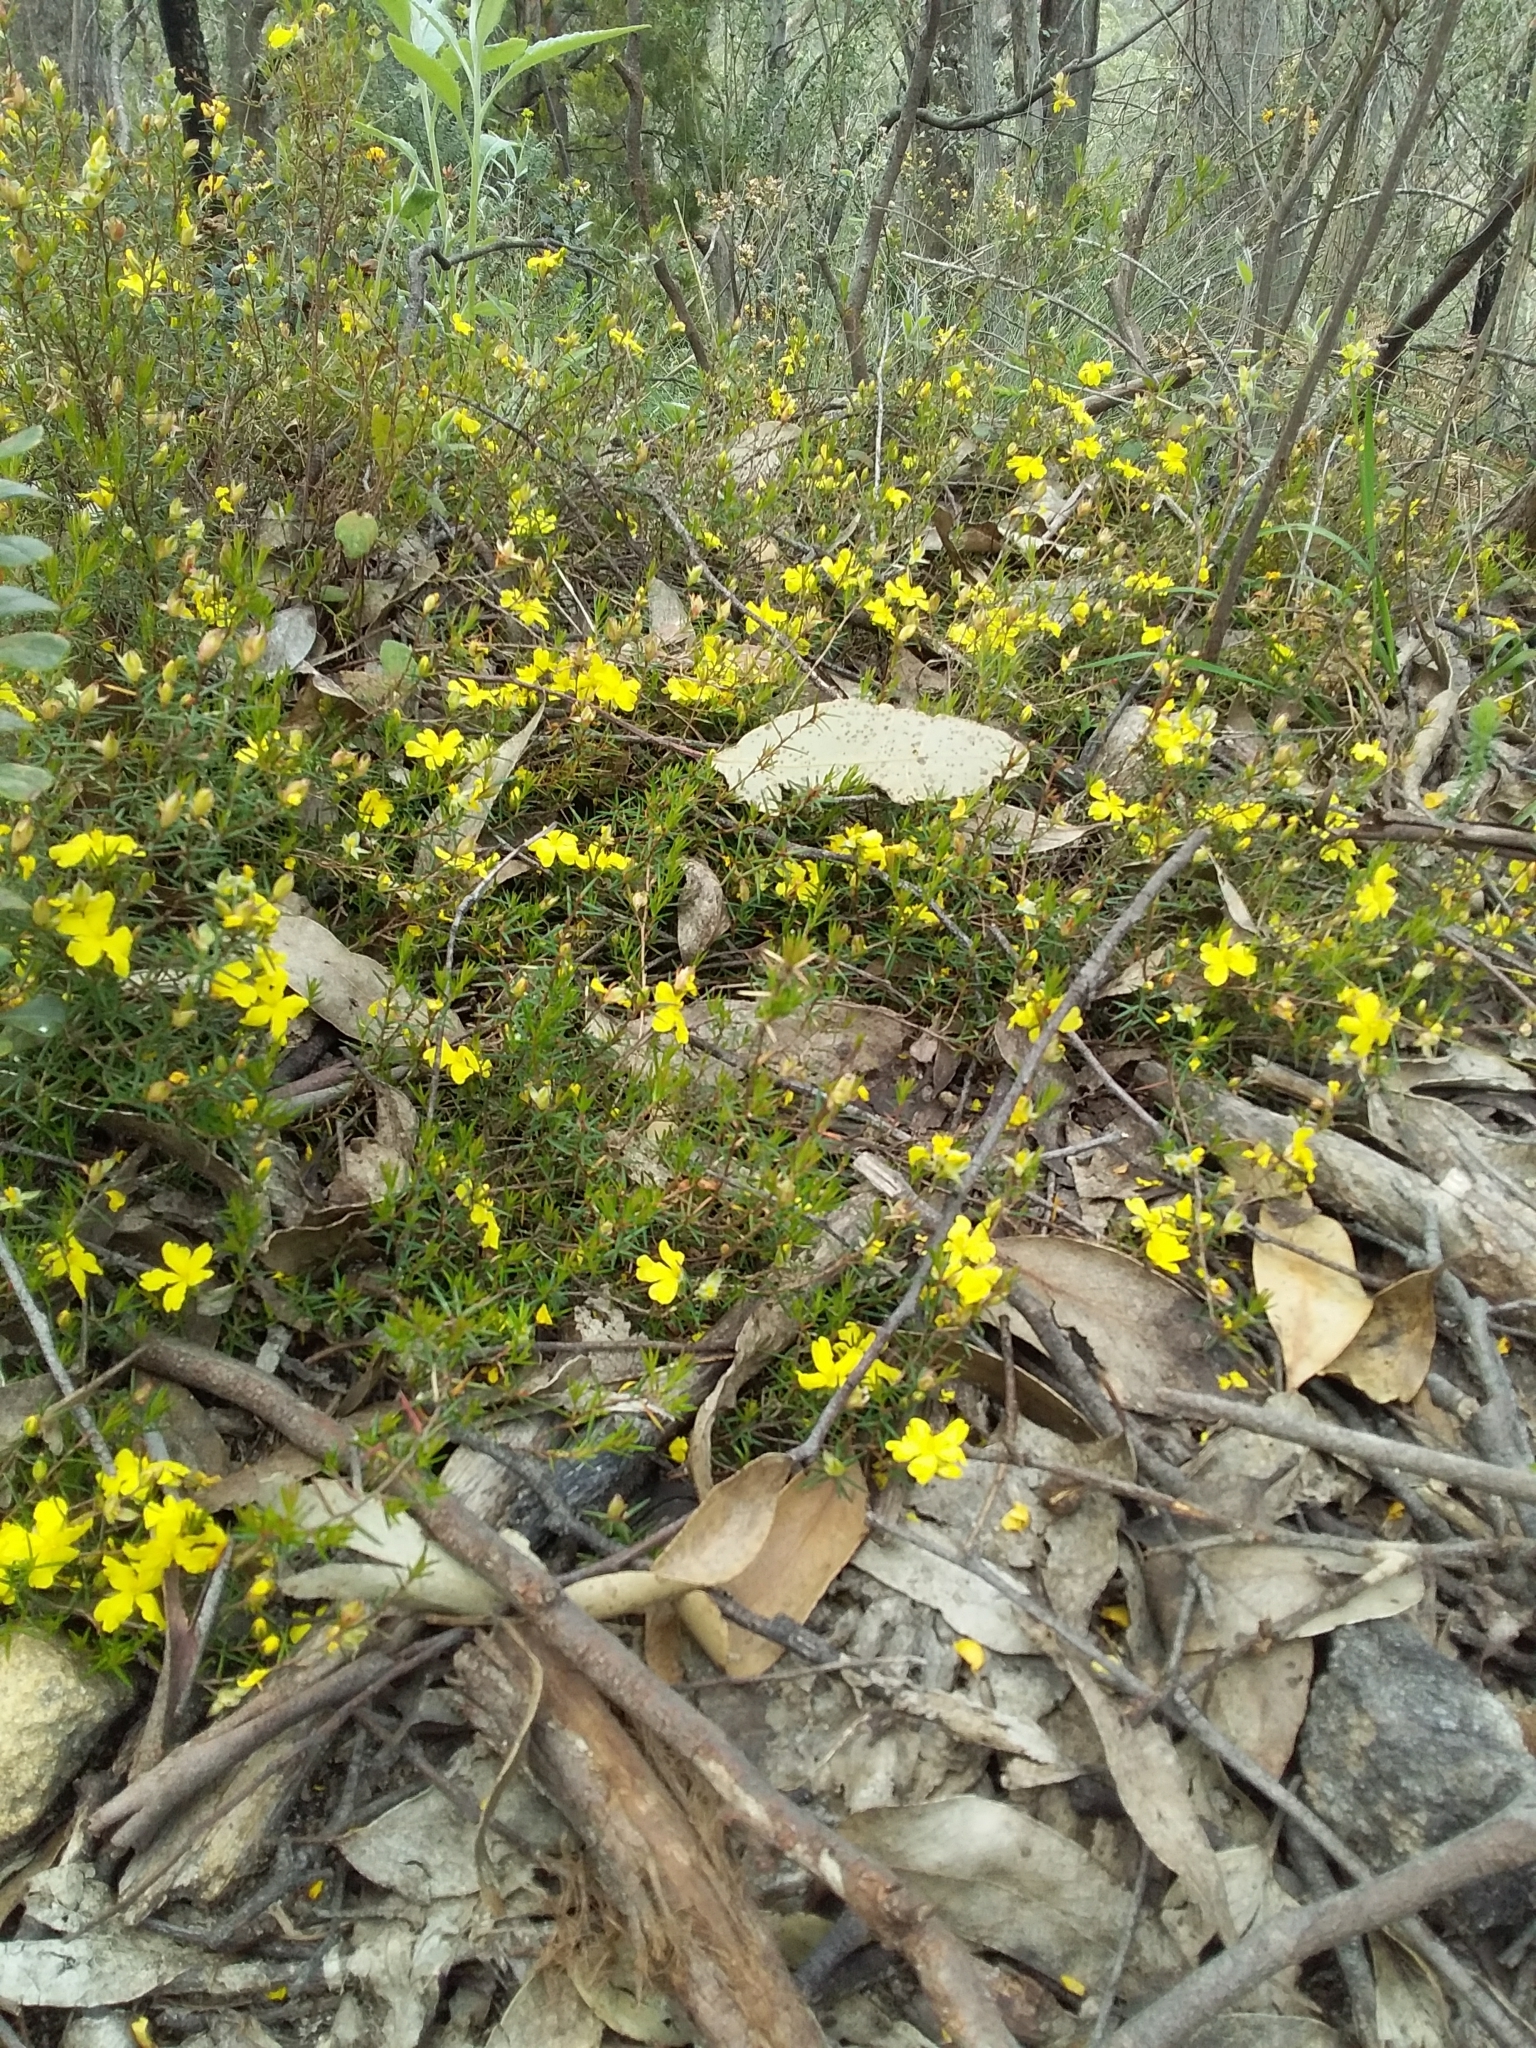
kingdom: Plantae
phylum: Tracheophyta
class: Magnoliopsida
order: Dilleniales
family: Dilleniaceae
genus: Hibbertia
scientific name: Hibbertia exutiacies
